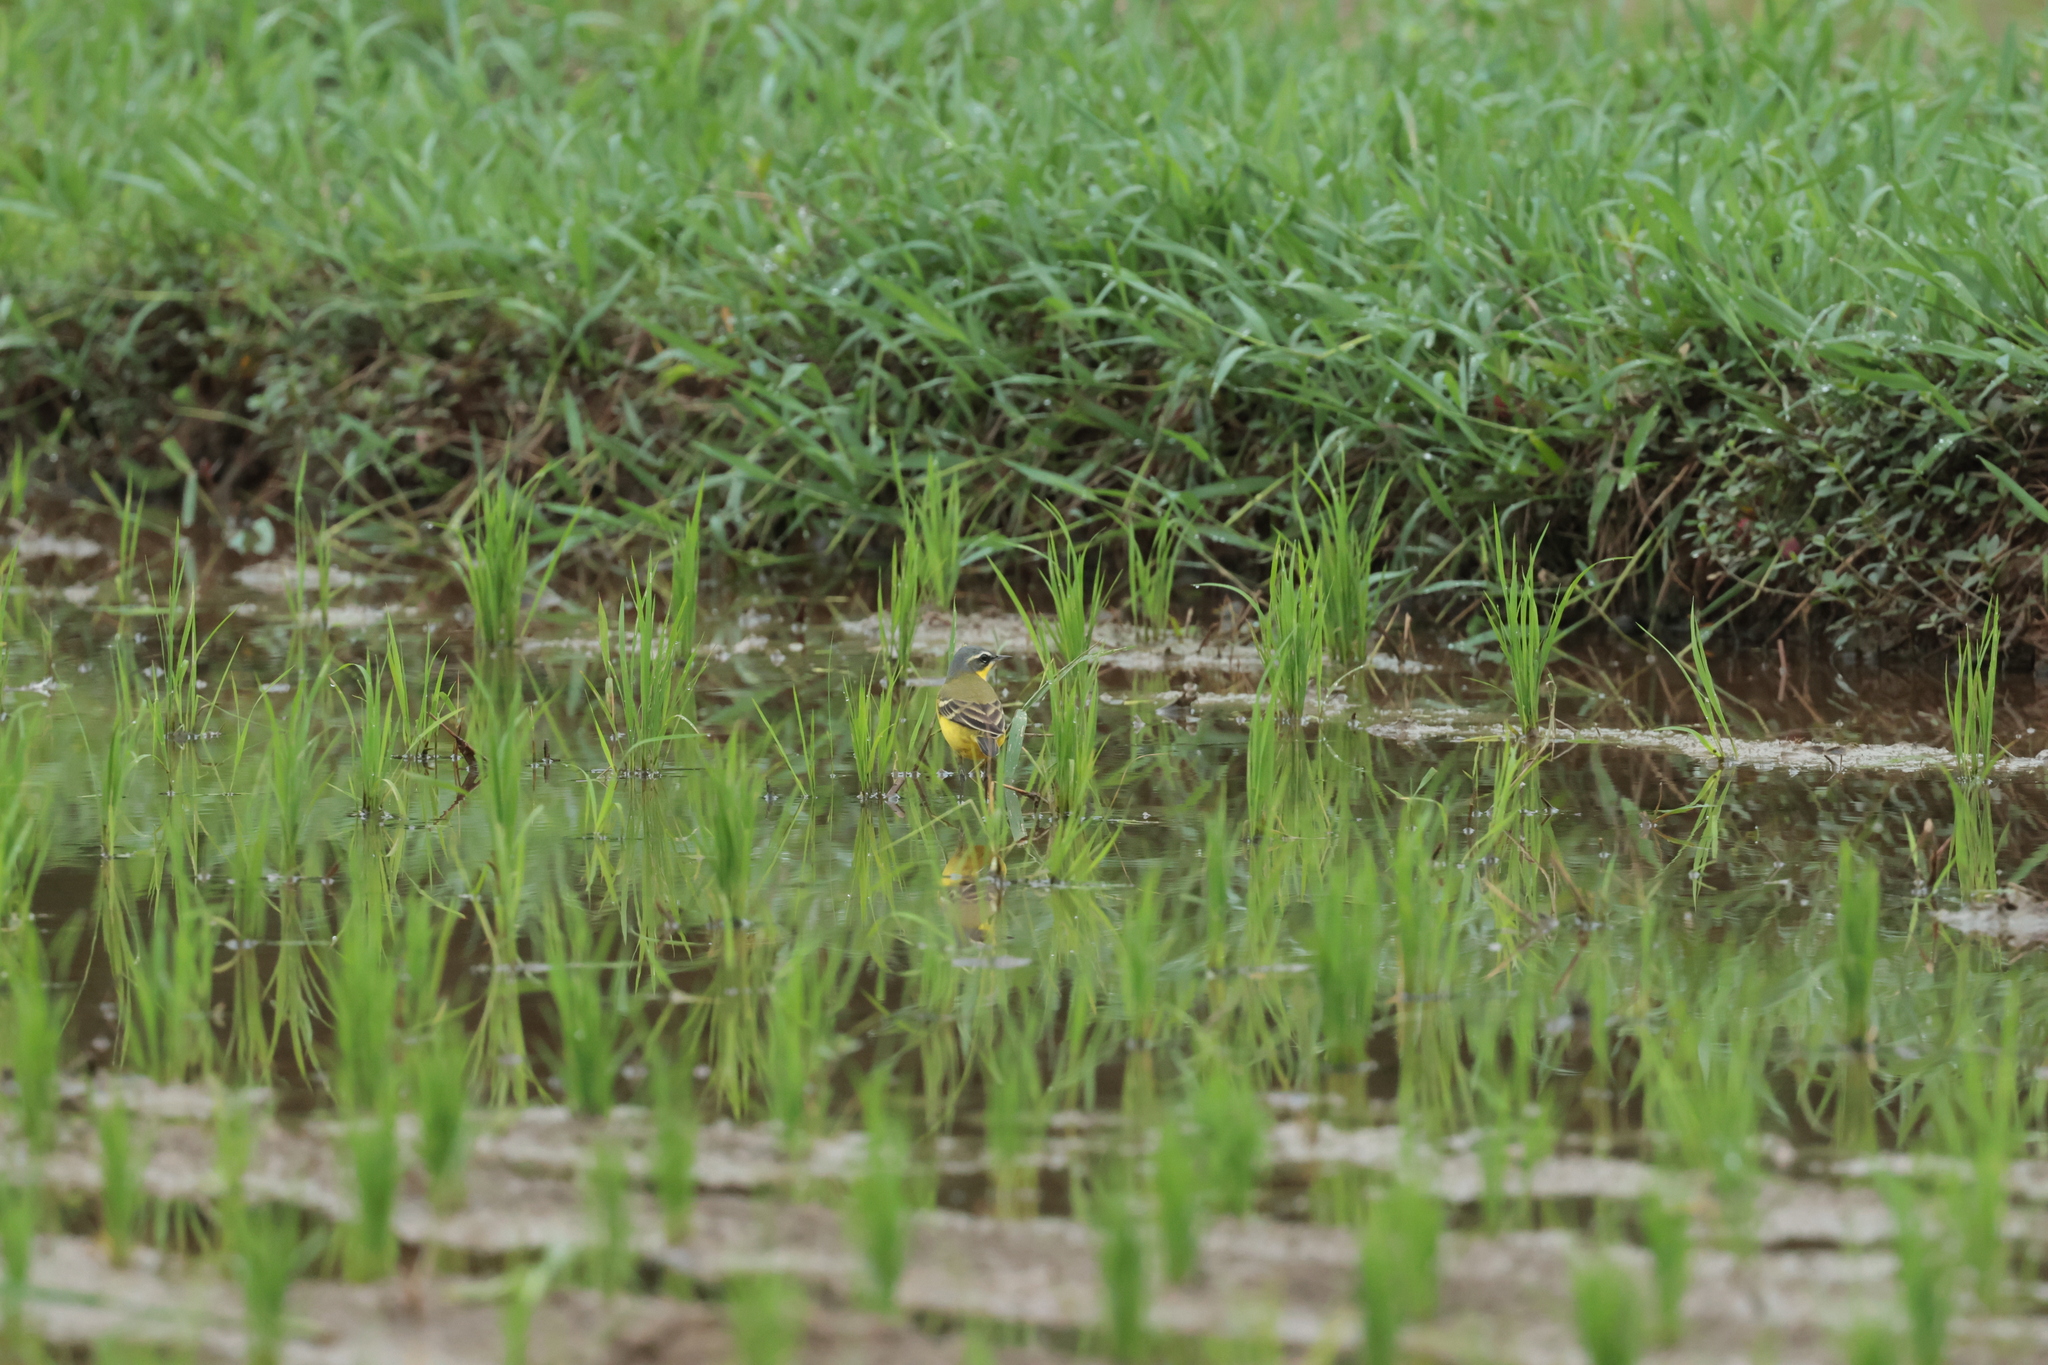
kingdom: Animalia
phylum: Chordata
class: Aves
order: Passeriformes
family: Motacillidae
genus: Motacilla
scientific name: Motacilla tschutschensis
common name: Eastern yellow wagtail
